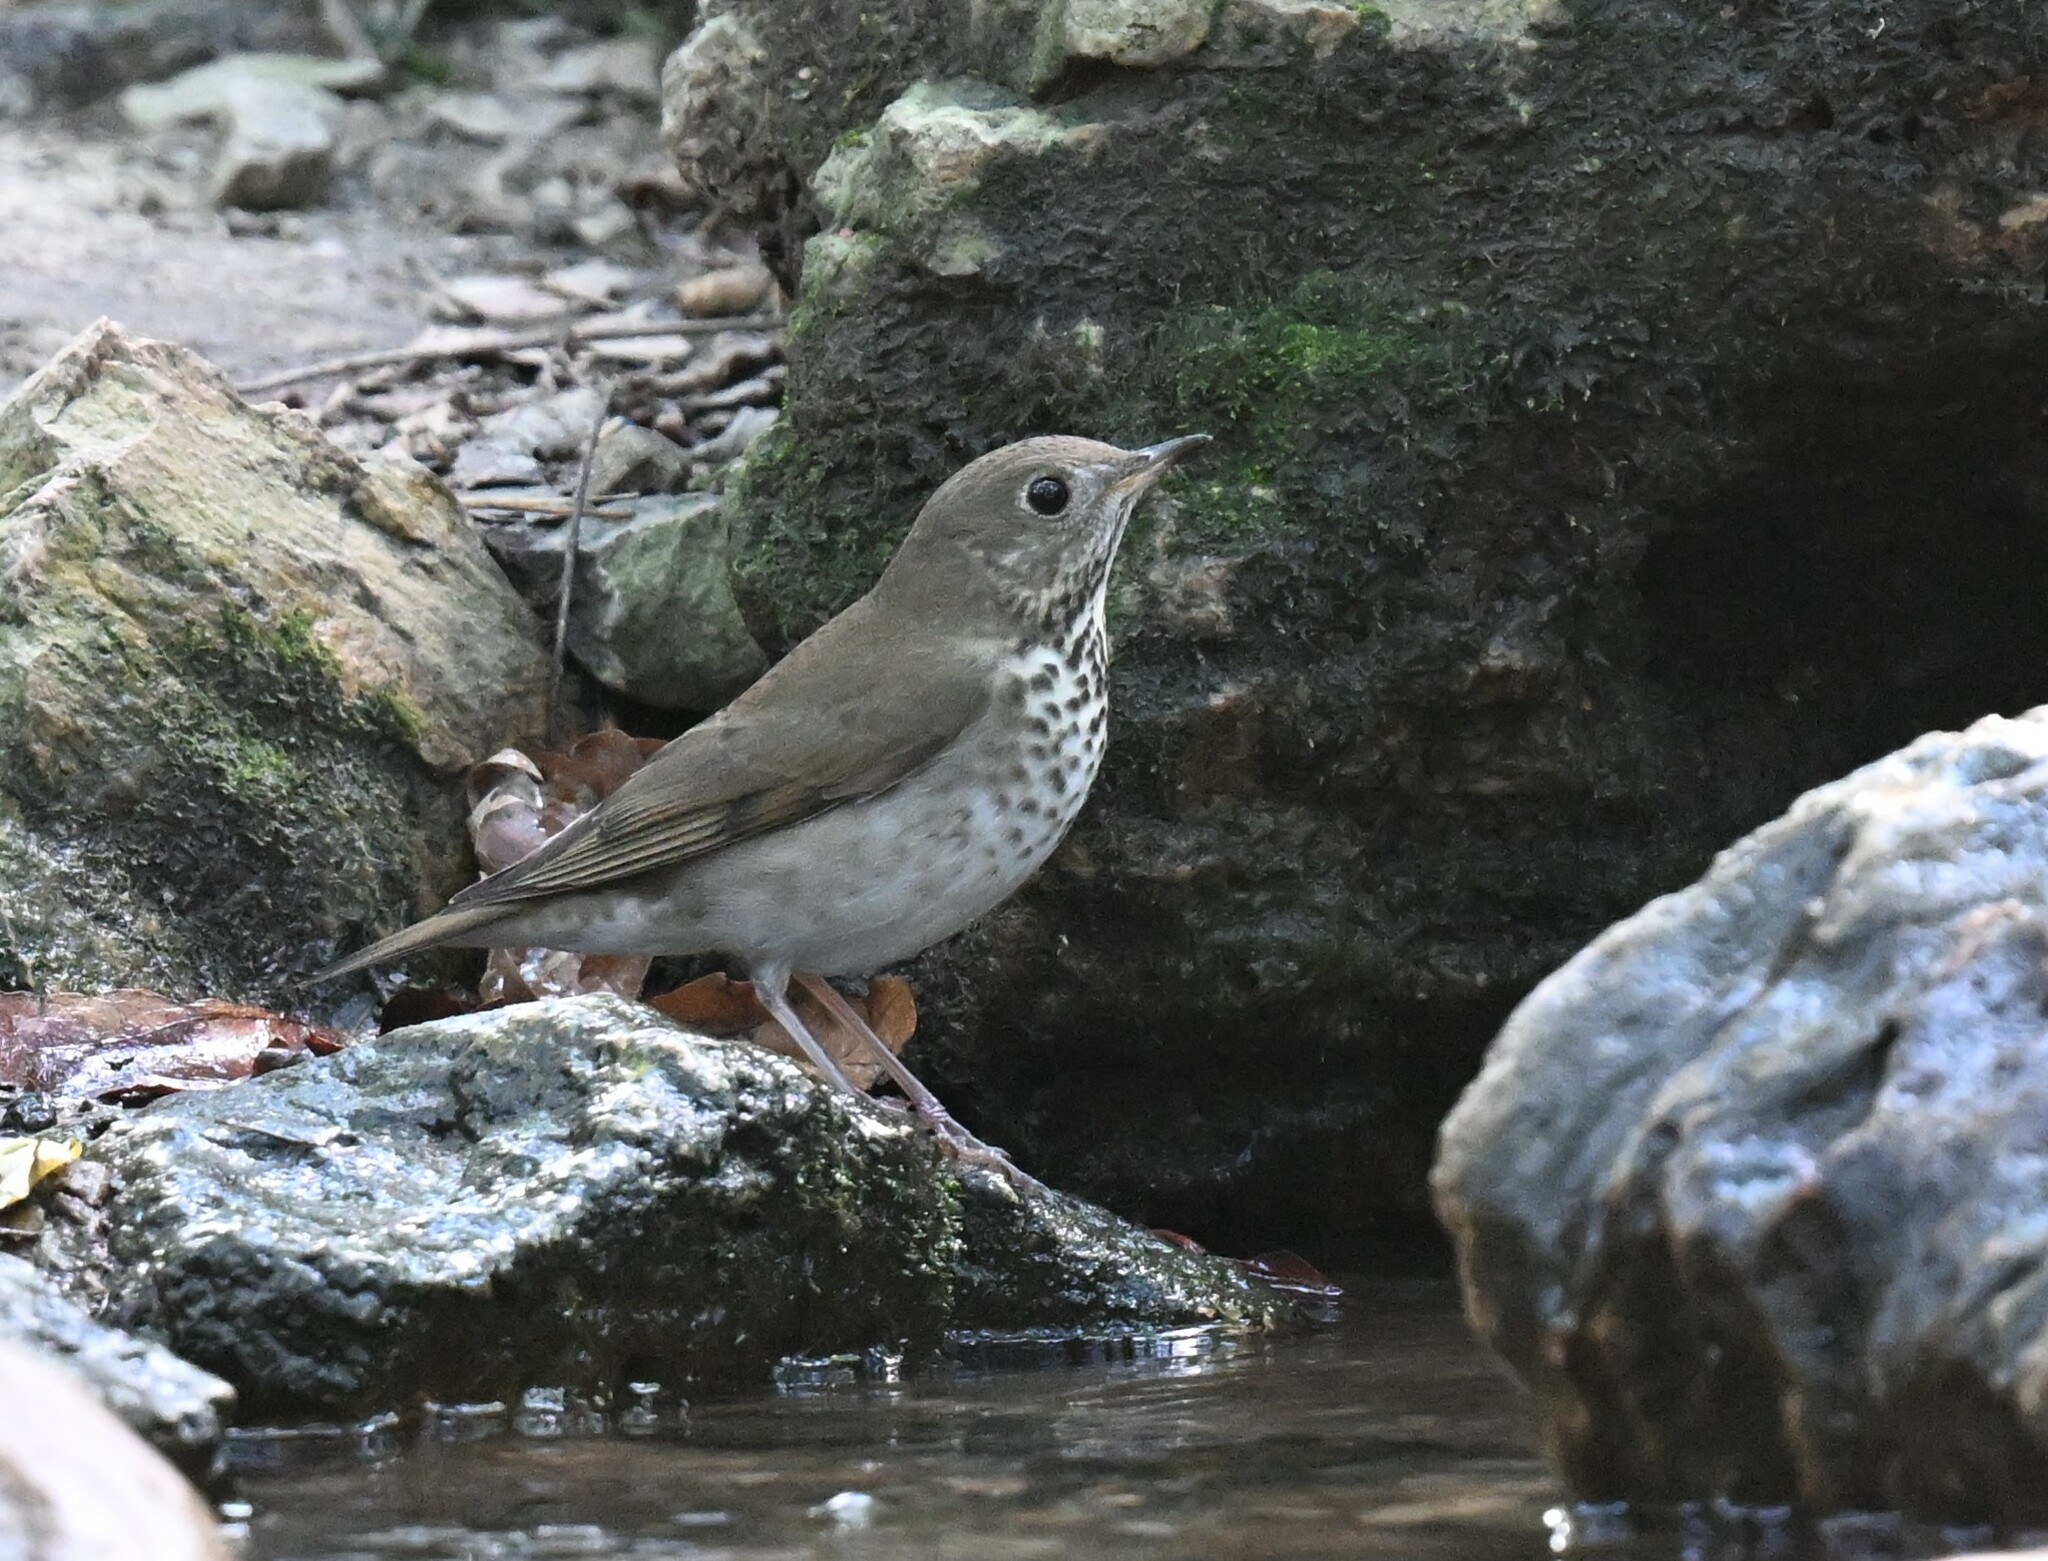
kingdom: Animalia
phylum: Chordata
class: Aves
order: Passeriformes
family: Turdidae
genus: Catharus
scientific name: Catharus minimus
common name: Grey-cheeked thrush
